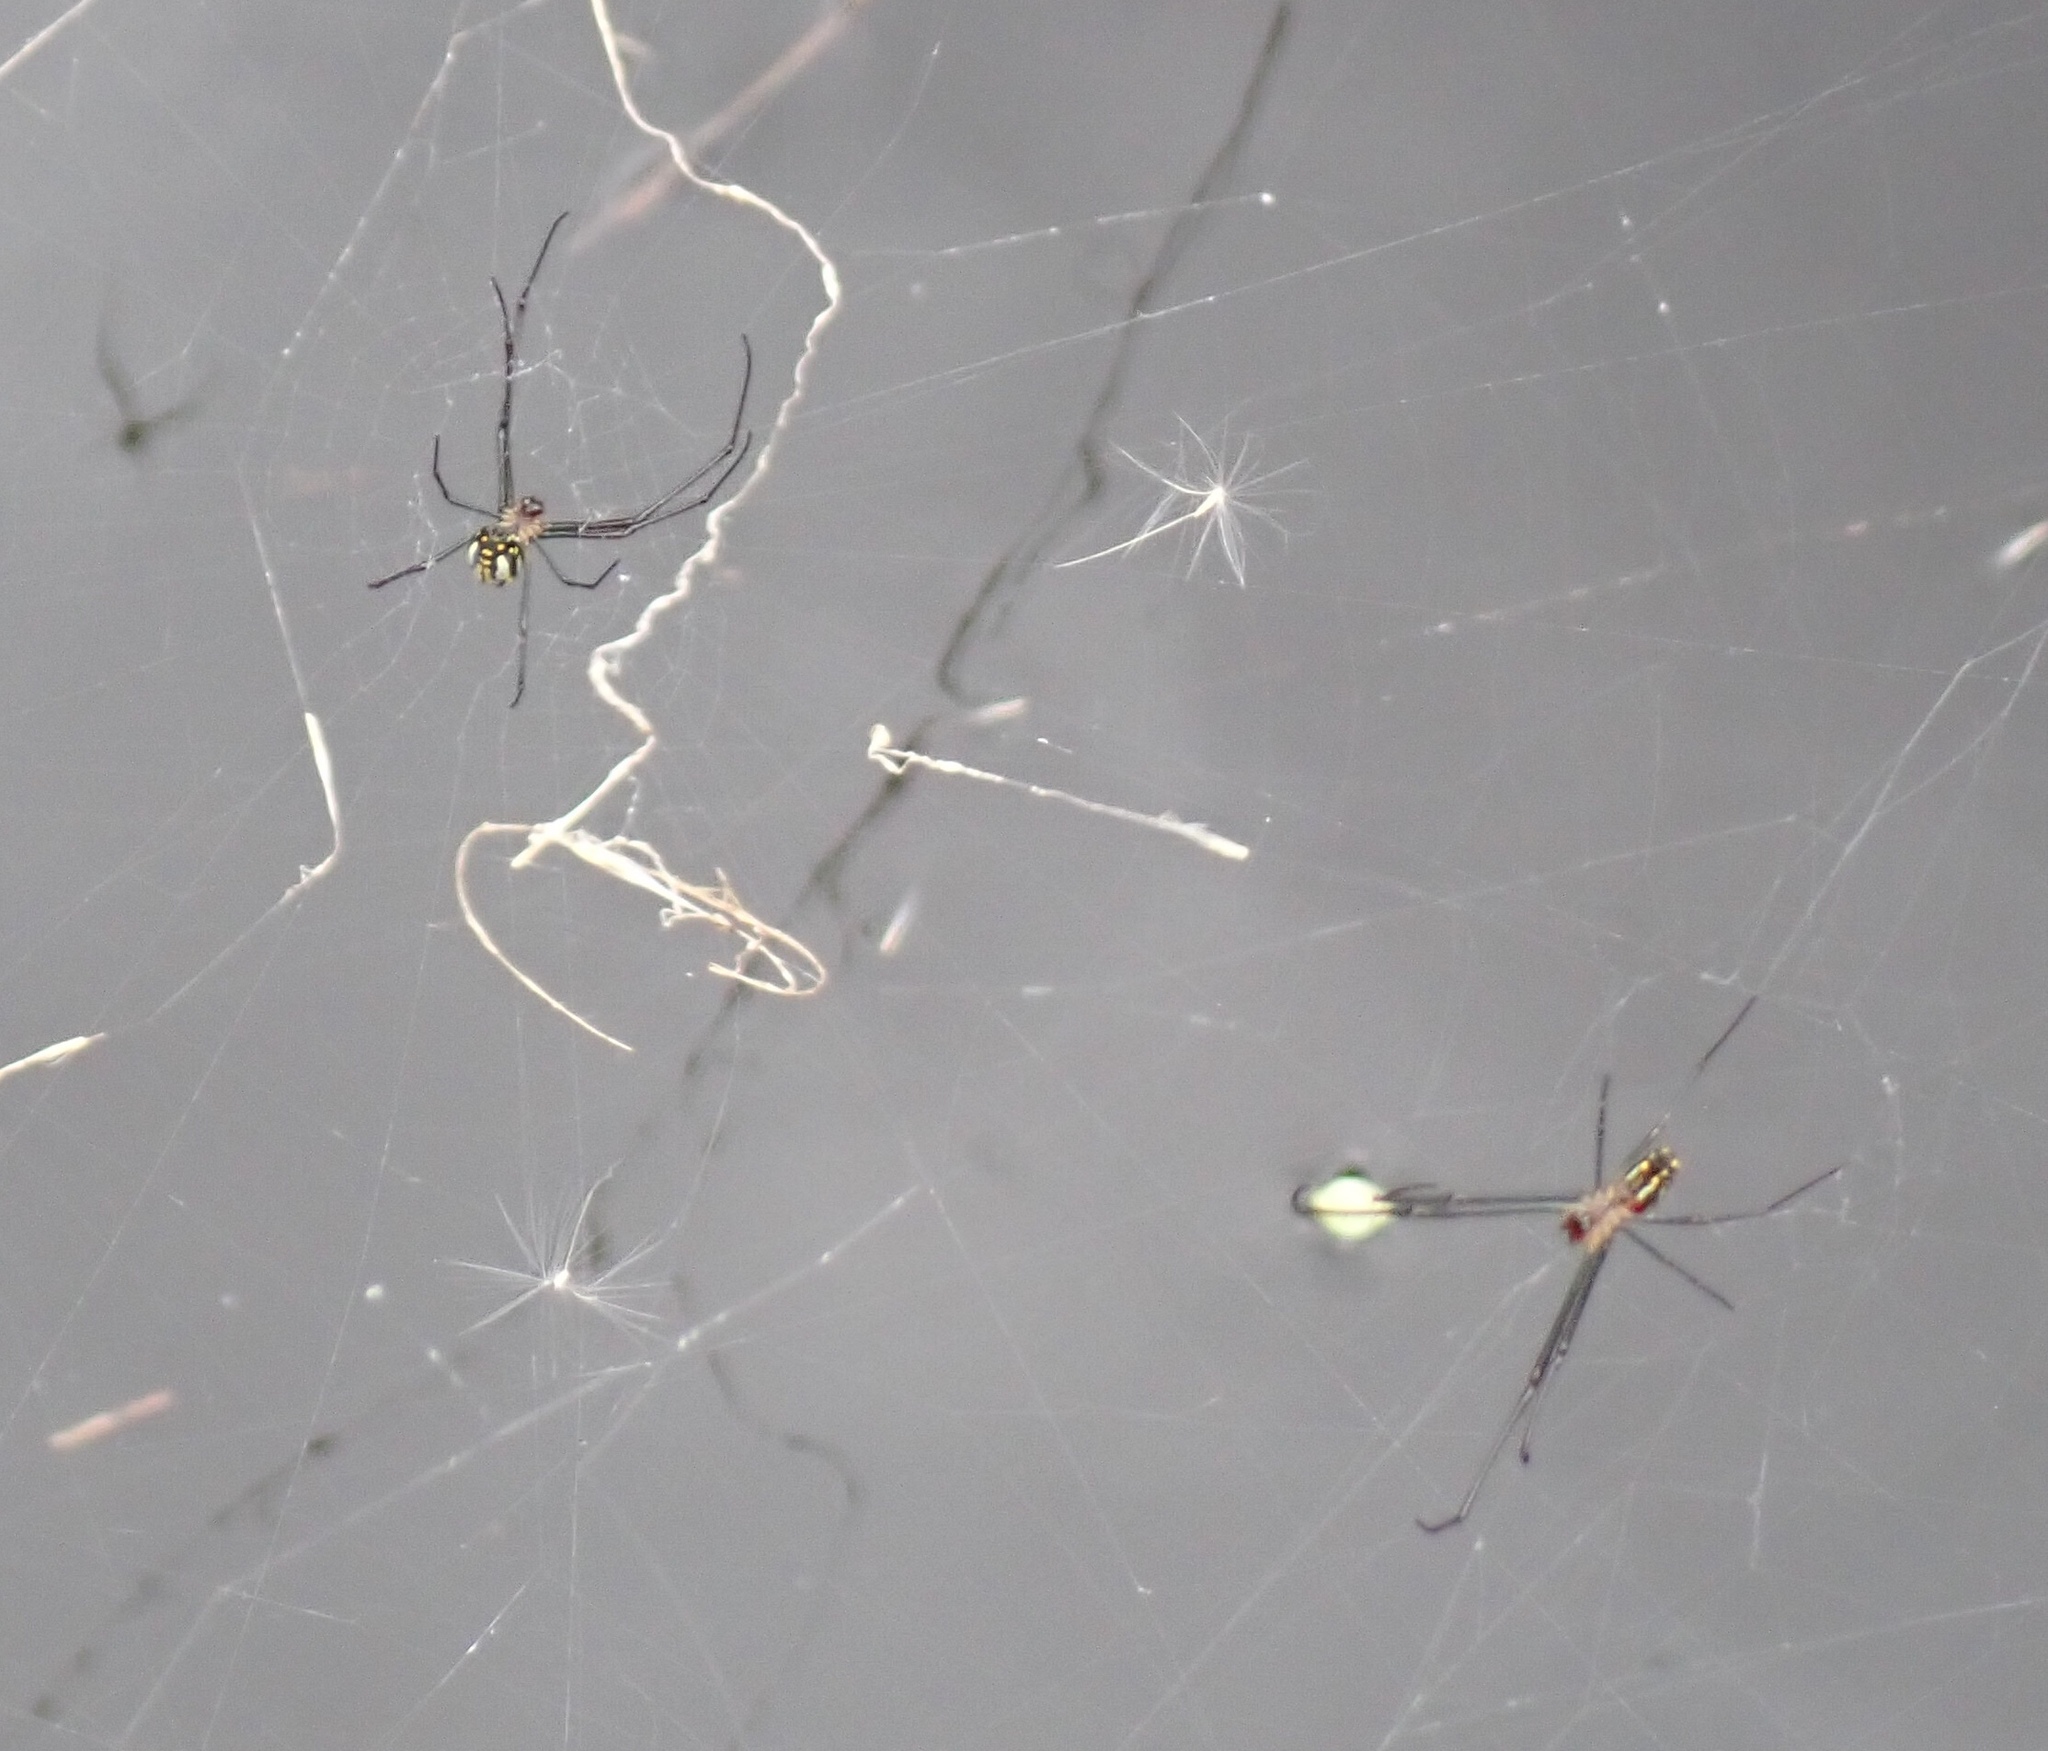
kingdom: Animalia
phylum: Arthropoda
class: Arachnida
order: Araneae
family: Tetragnathidae
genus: Leucauge
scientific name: Leucauge argyra
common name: Longjawed orb weavers
